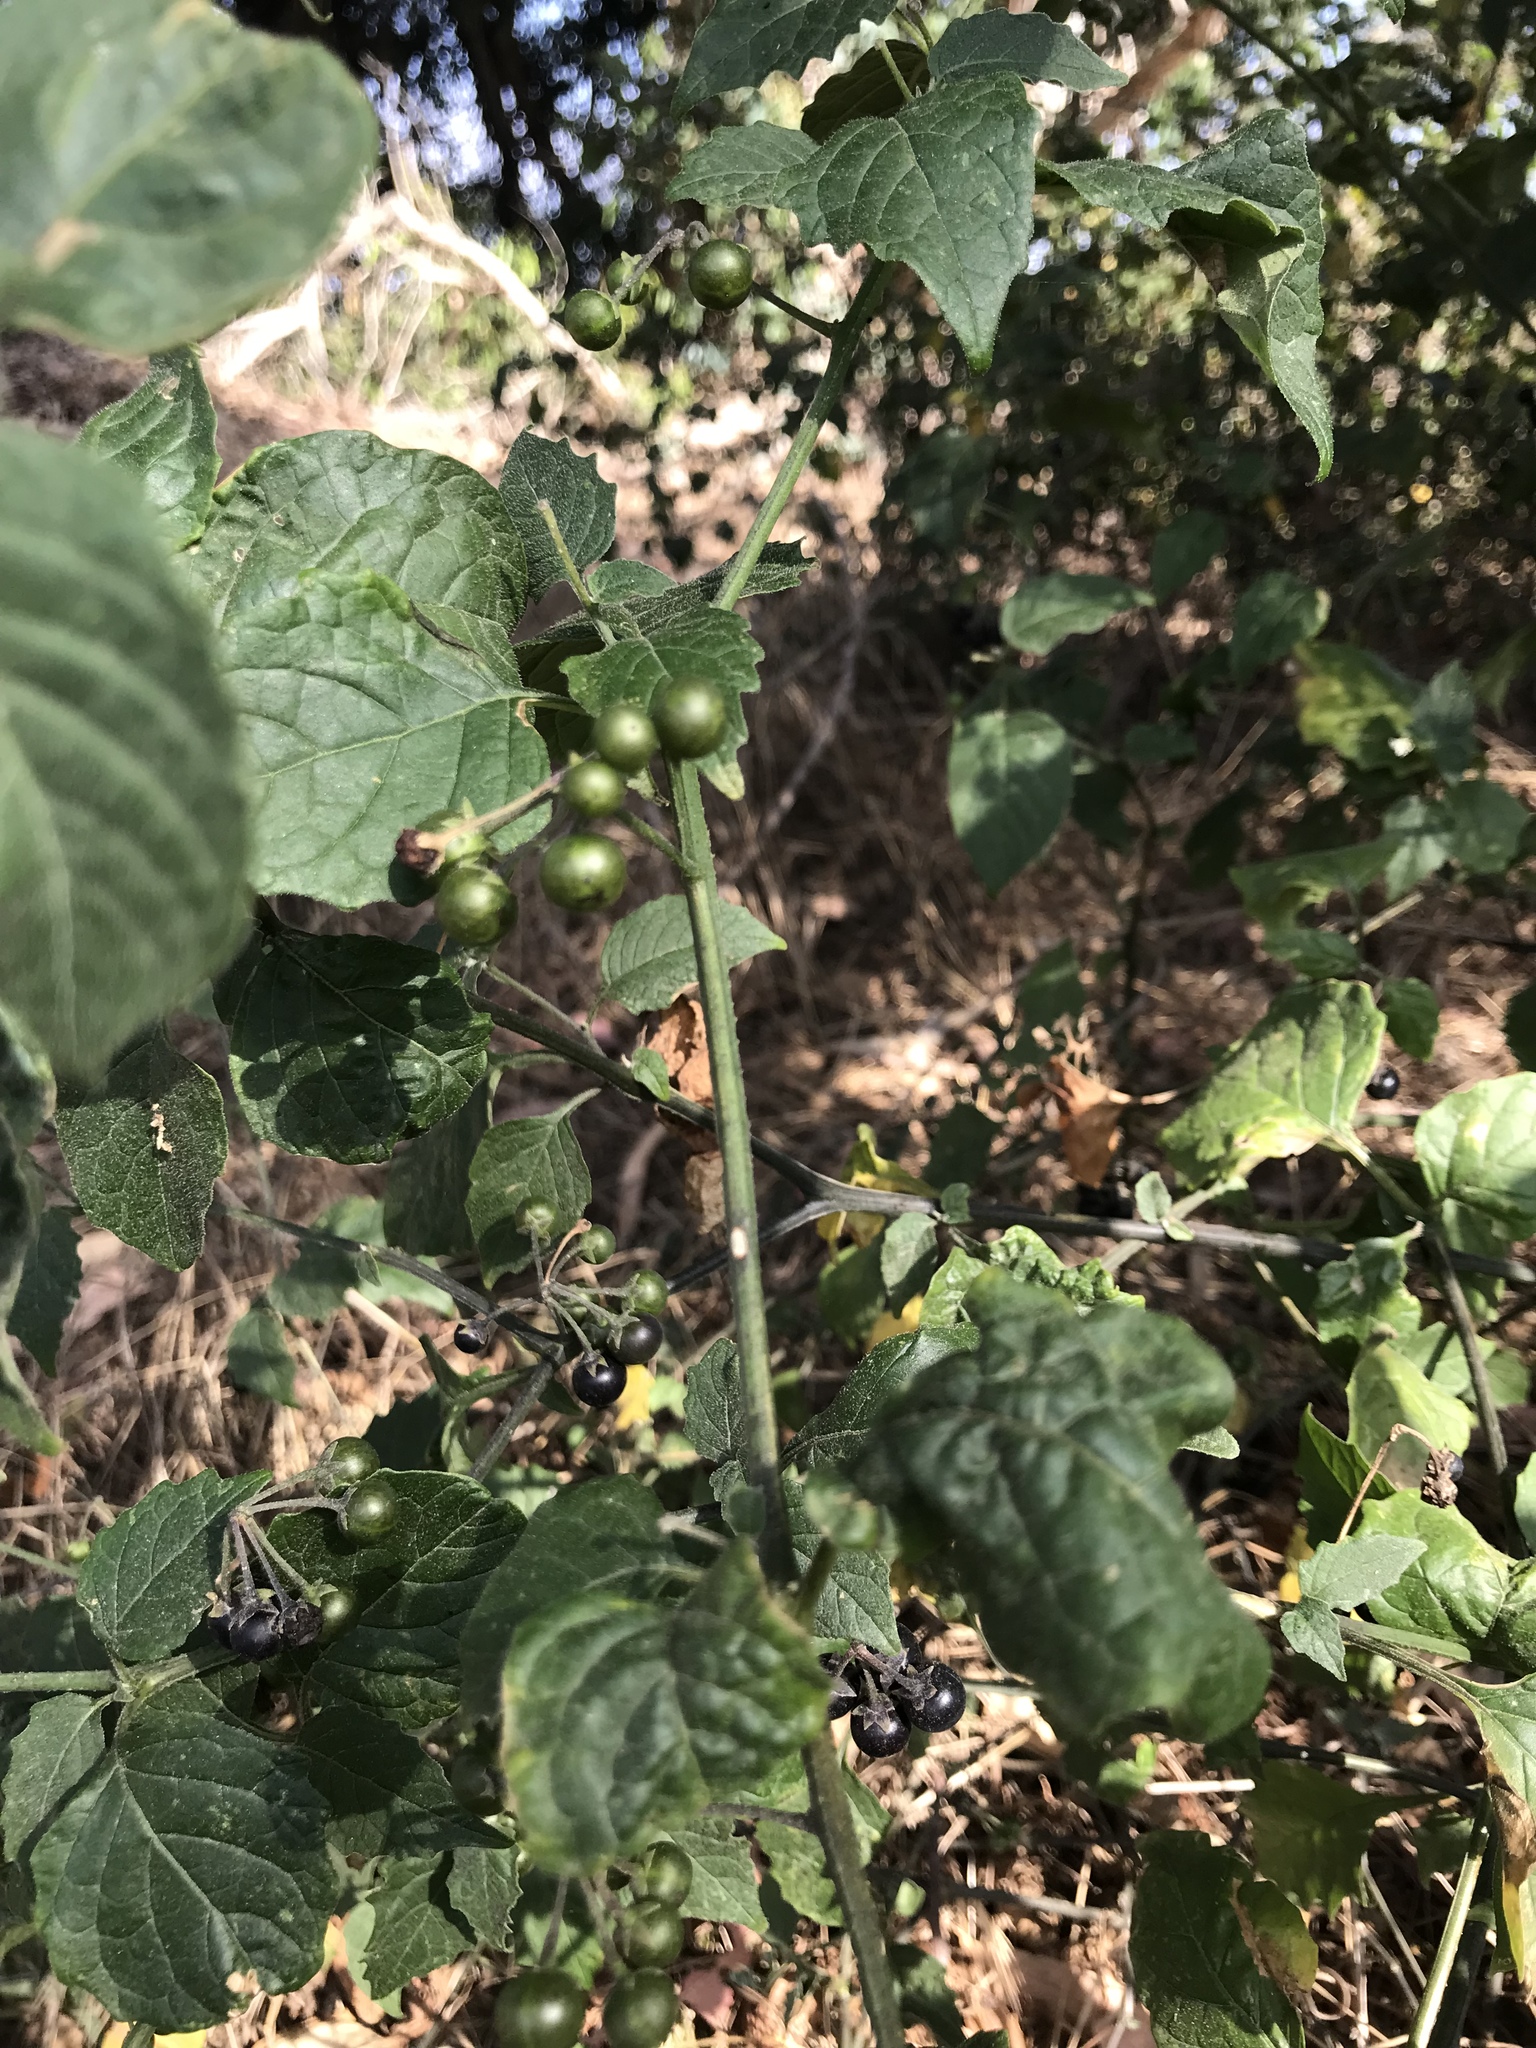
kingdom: Plantae
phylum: Tracheophyta
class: Magnoliopsida
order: Solanales
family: Solanaceae
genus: Solanum
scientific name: Solanum douglasii
